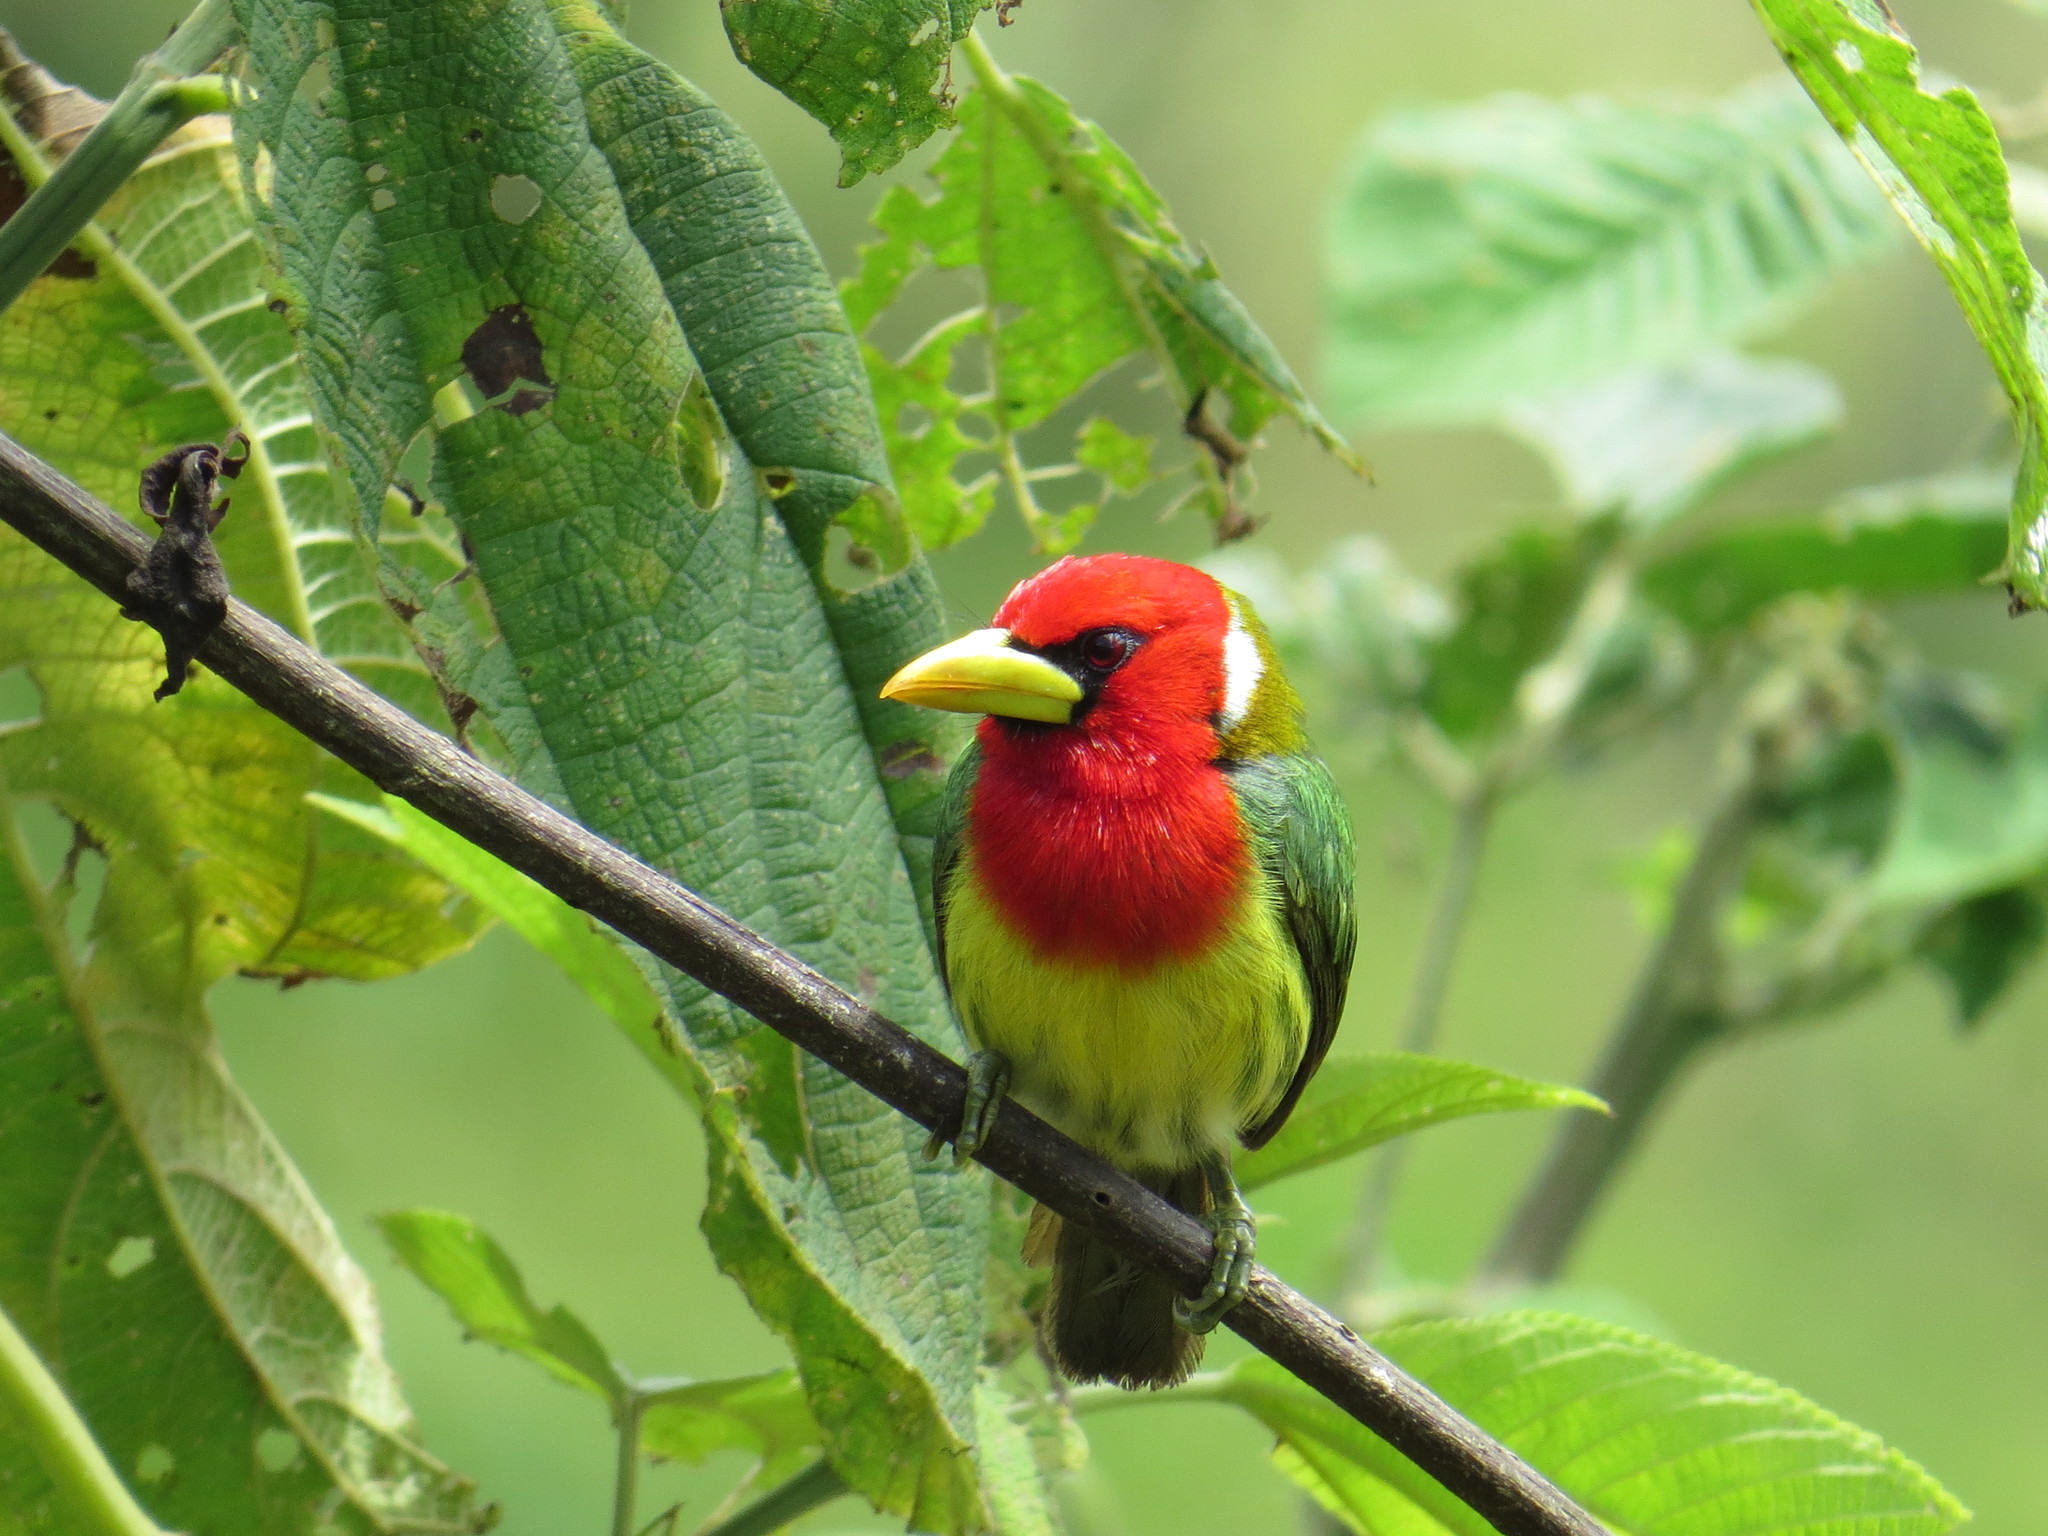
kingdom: Animalia
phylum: Chordata
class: Aves
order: Piciformes
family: Capitonidae
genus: Eubucco
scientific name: Eubucco bourcierii
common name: Red-headed barbet
